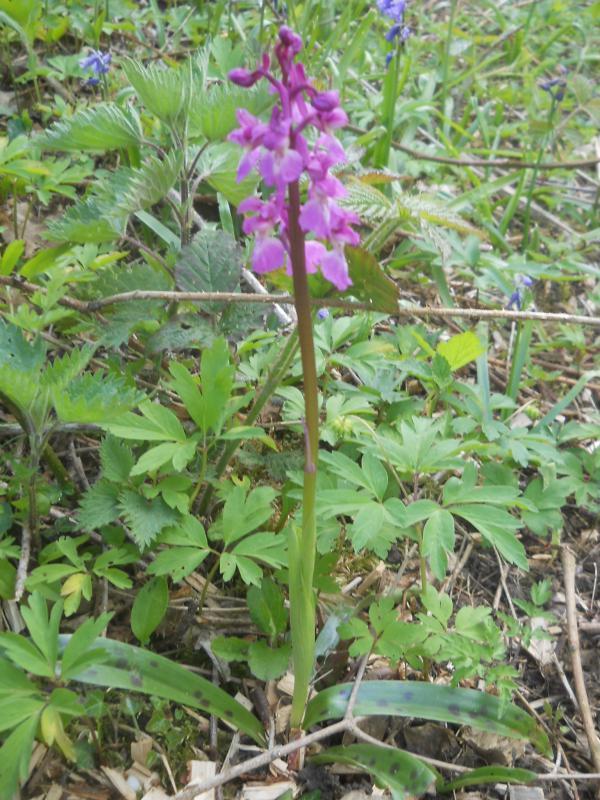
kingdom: Plantae
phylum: Tracheophyta
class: Liliopsida
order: Asparagales
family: Orchidaceae
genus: Orchis
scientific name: Orchis mascula
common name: Early-purple orchid
